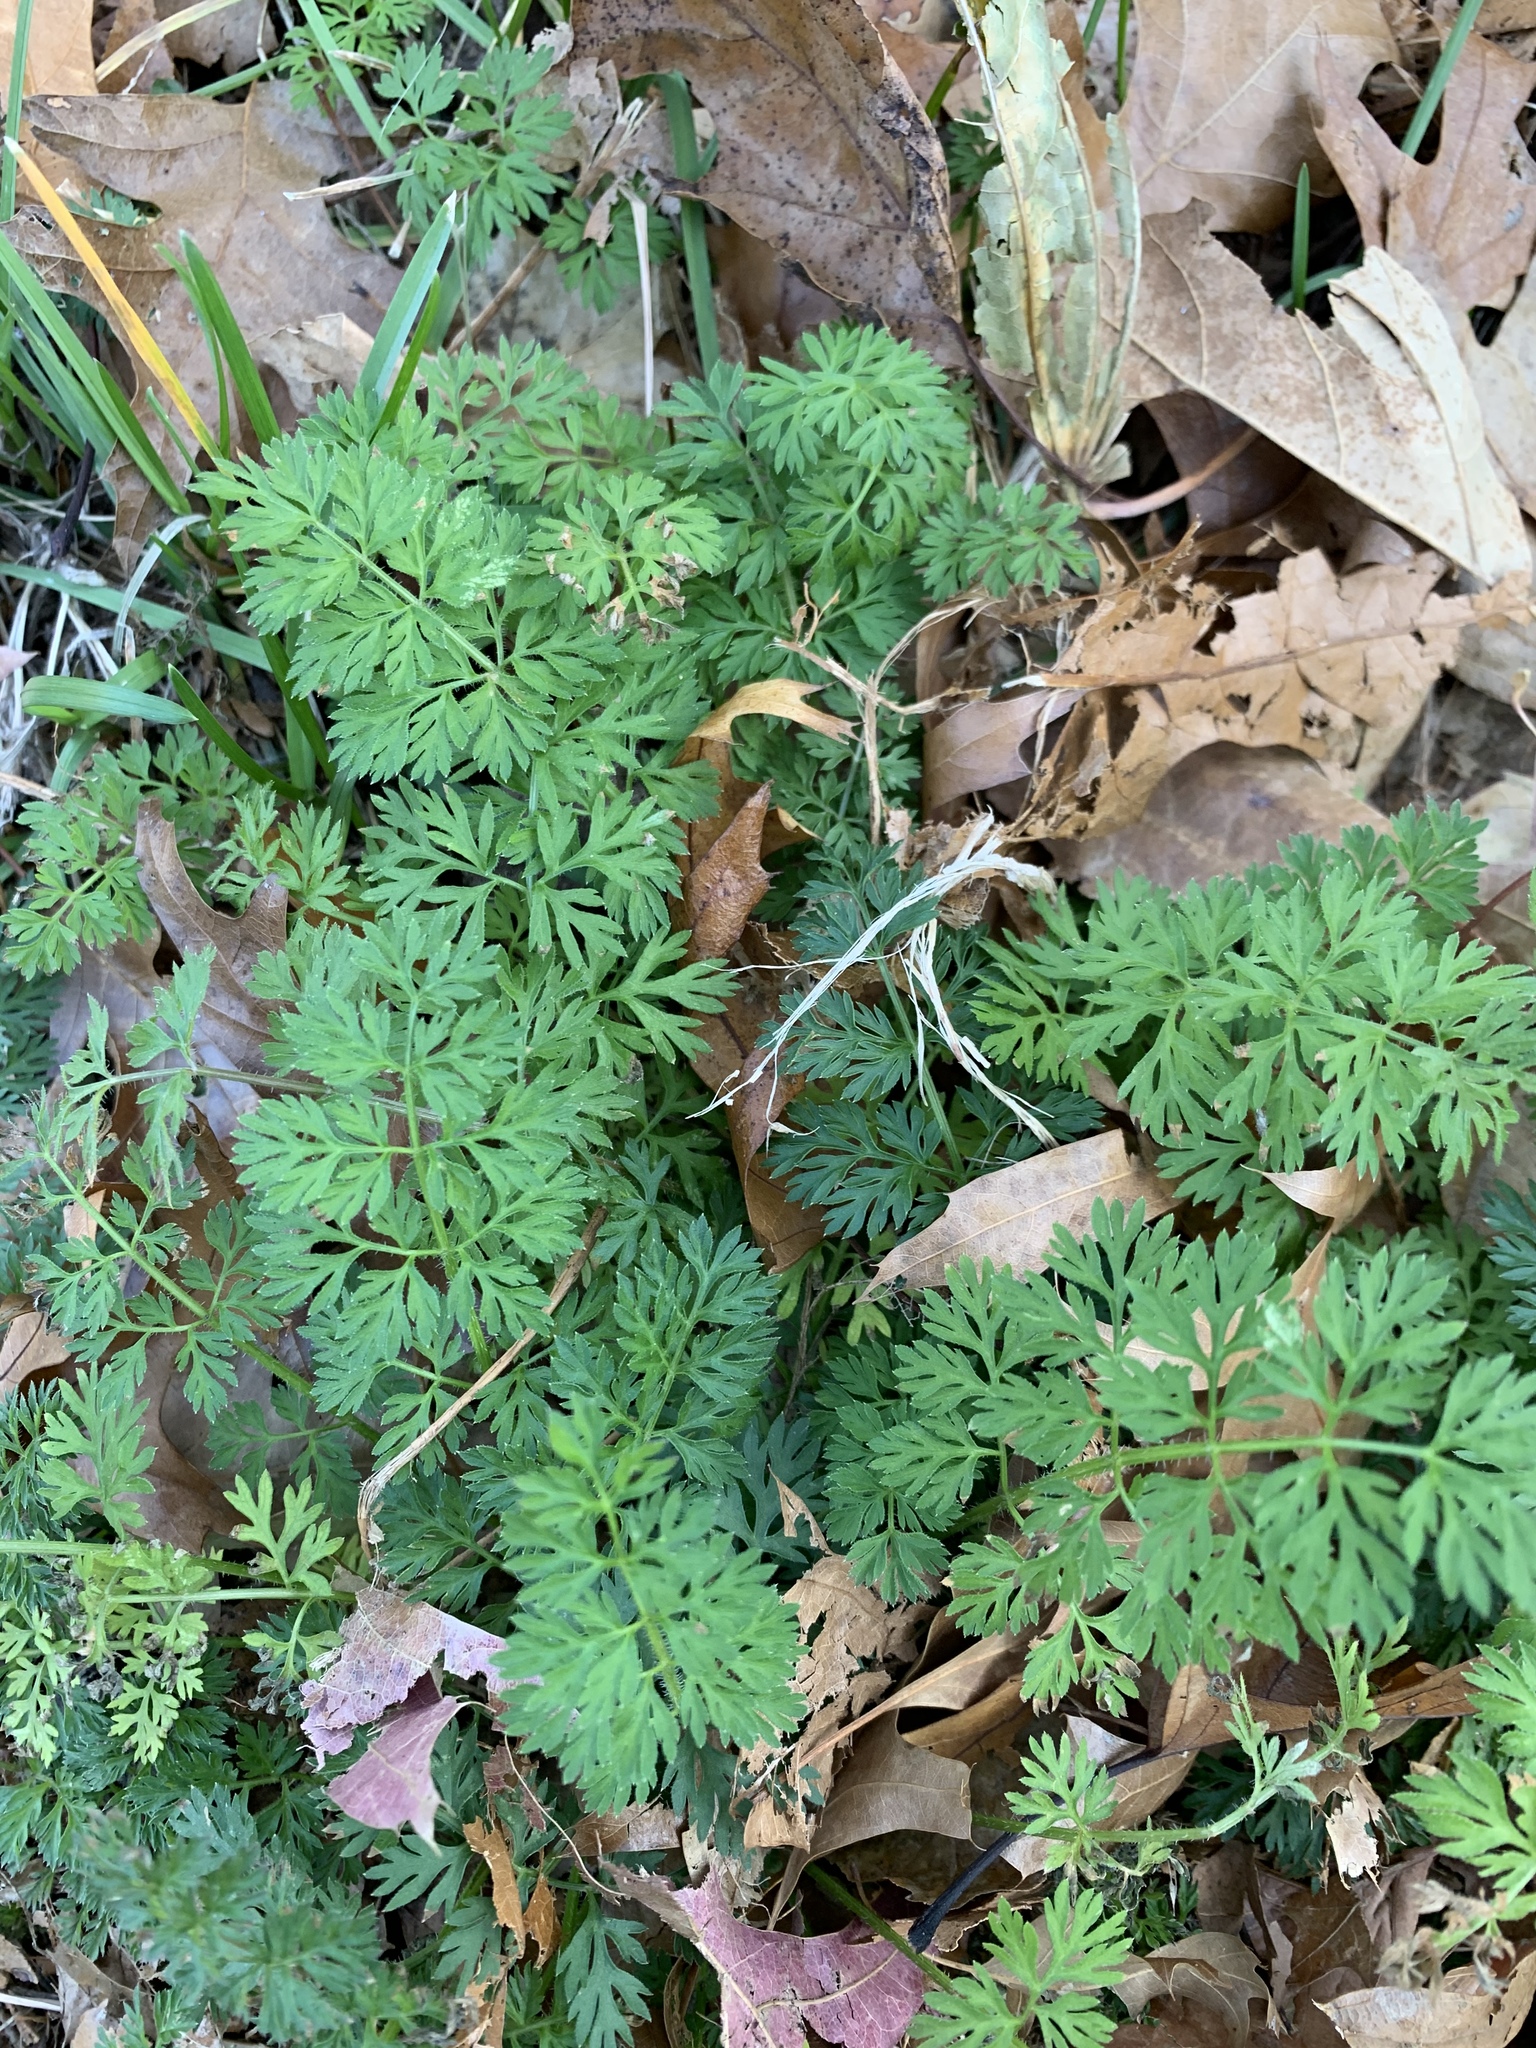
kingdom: Plantae
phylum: Tracheophyta
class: Magnoliopsida
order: Apiales
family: Apiaceae
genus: Daucus
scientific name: Daucus carota
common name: Wild carrot
